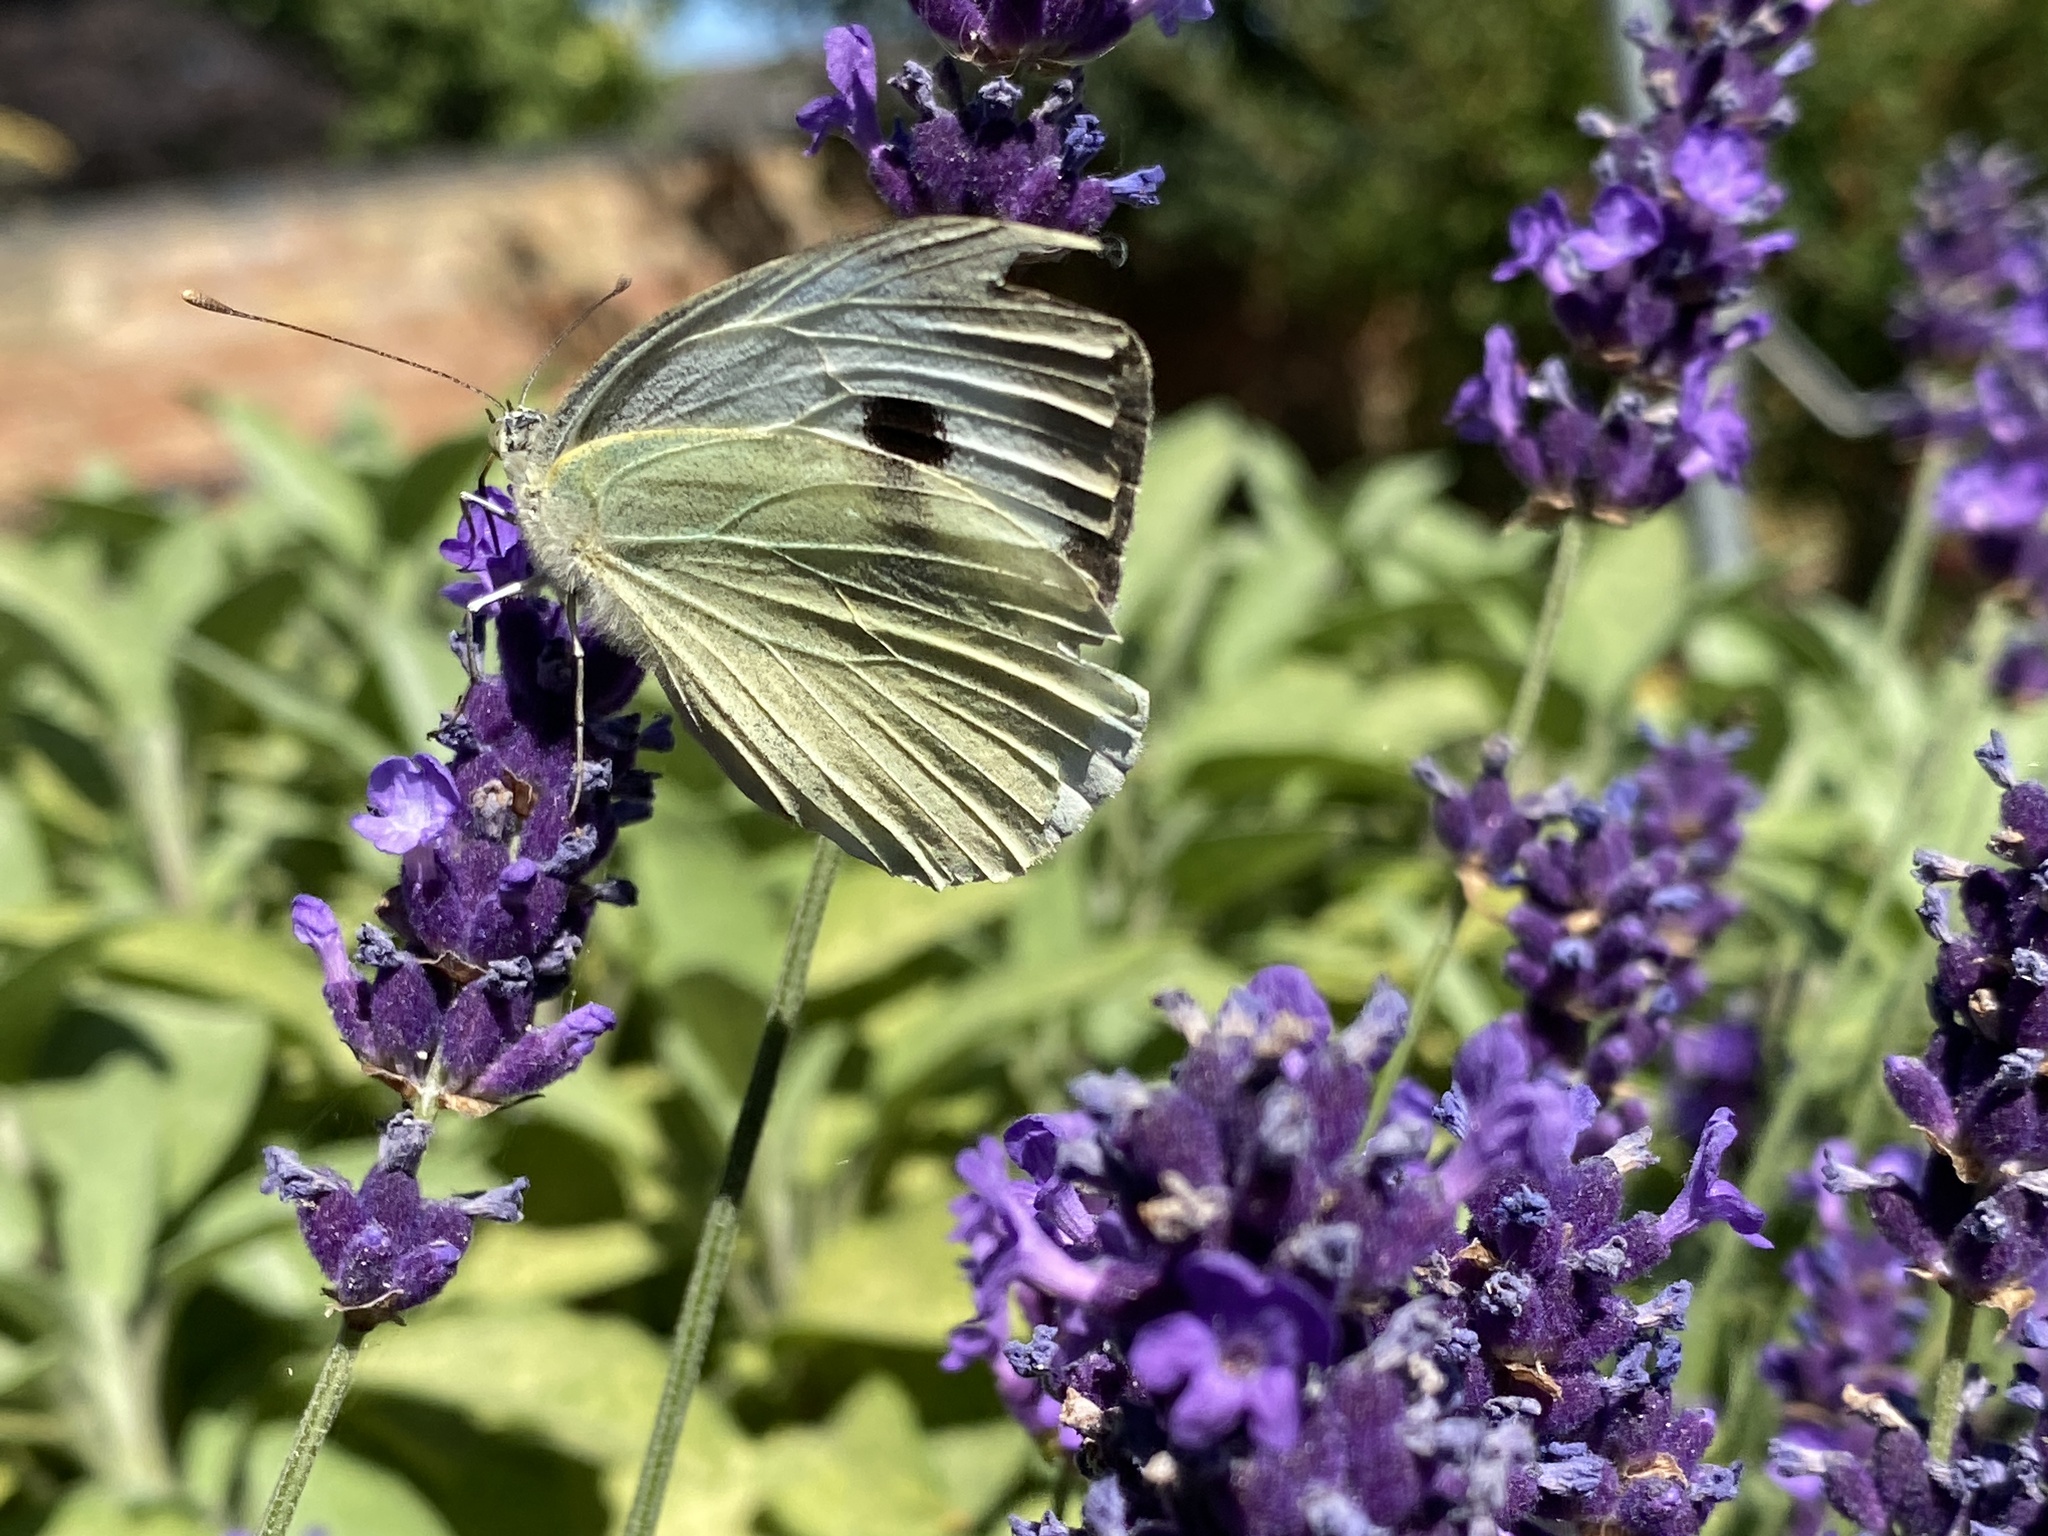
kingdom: Animalia
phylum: Arthropoda
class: Insecta
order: Lepidoptera
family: Pieridae
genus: Pieris
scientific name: Pieris brassicae
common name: Large white
